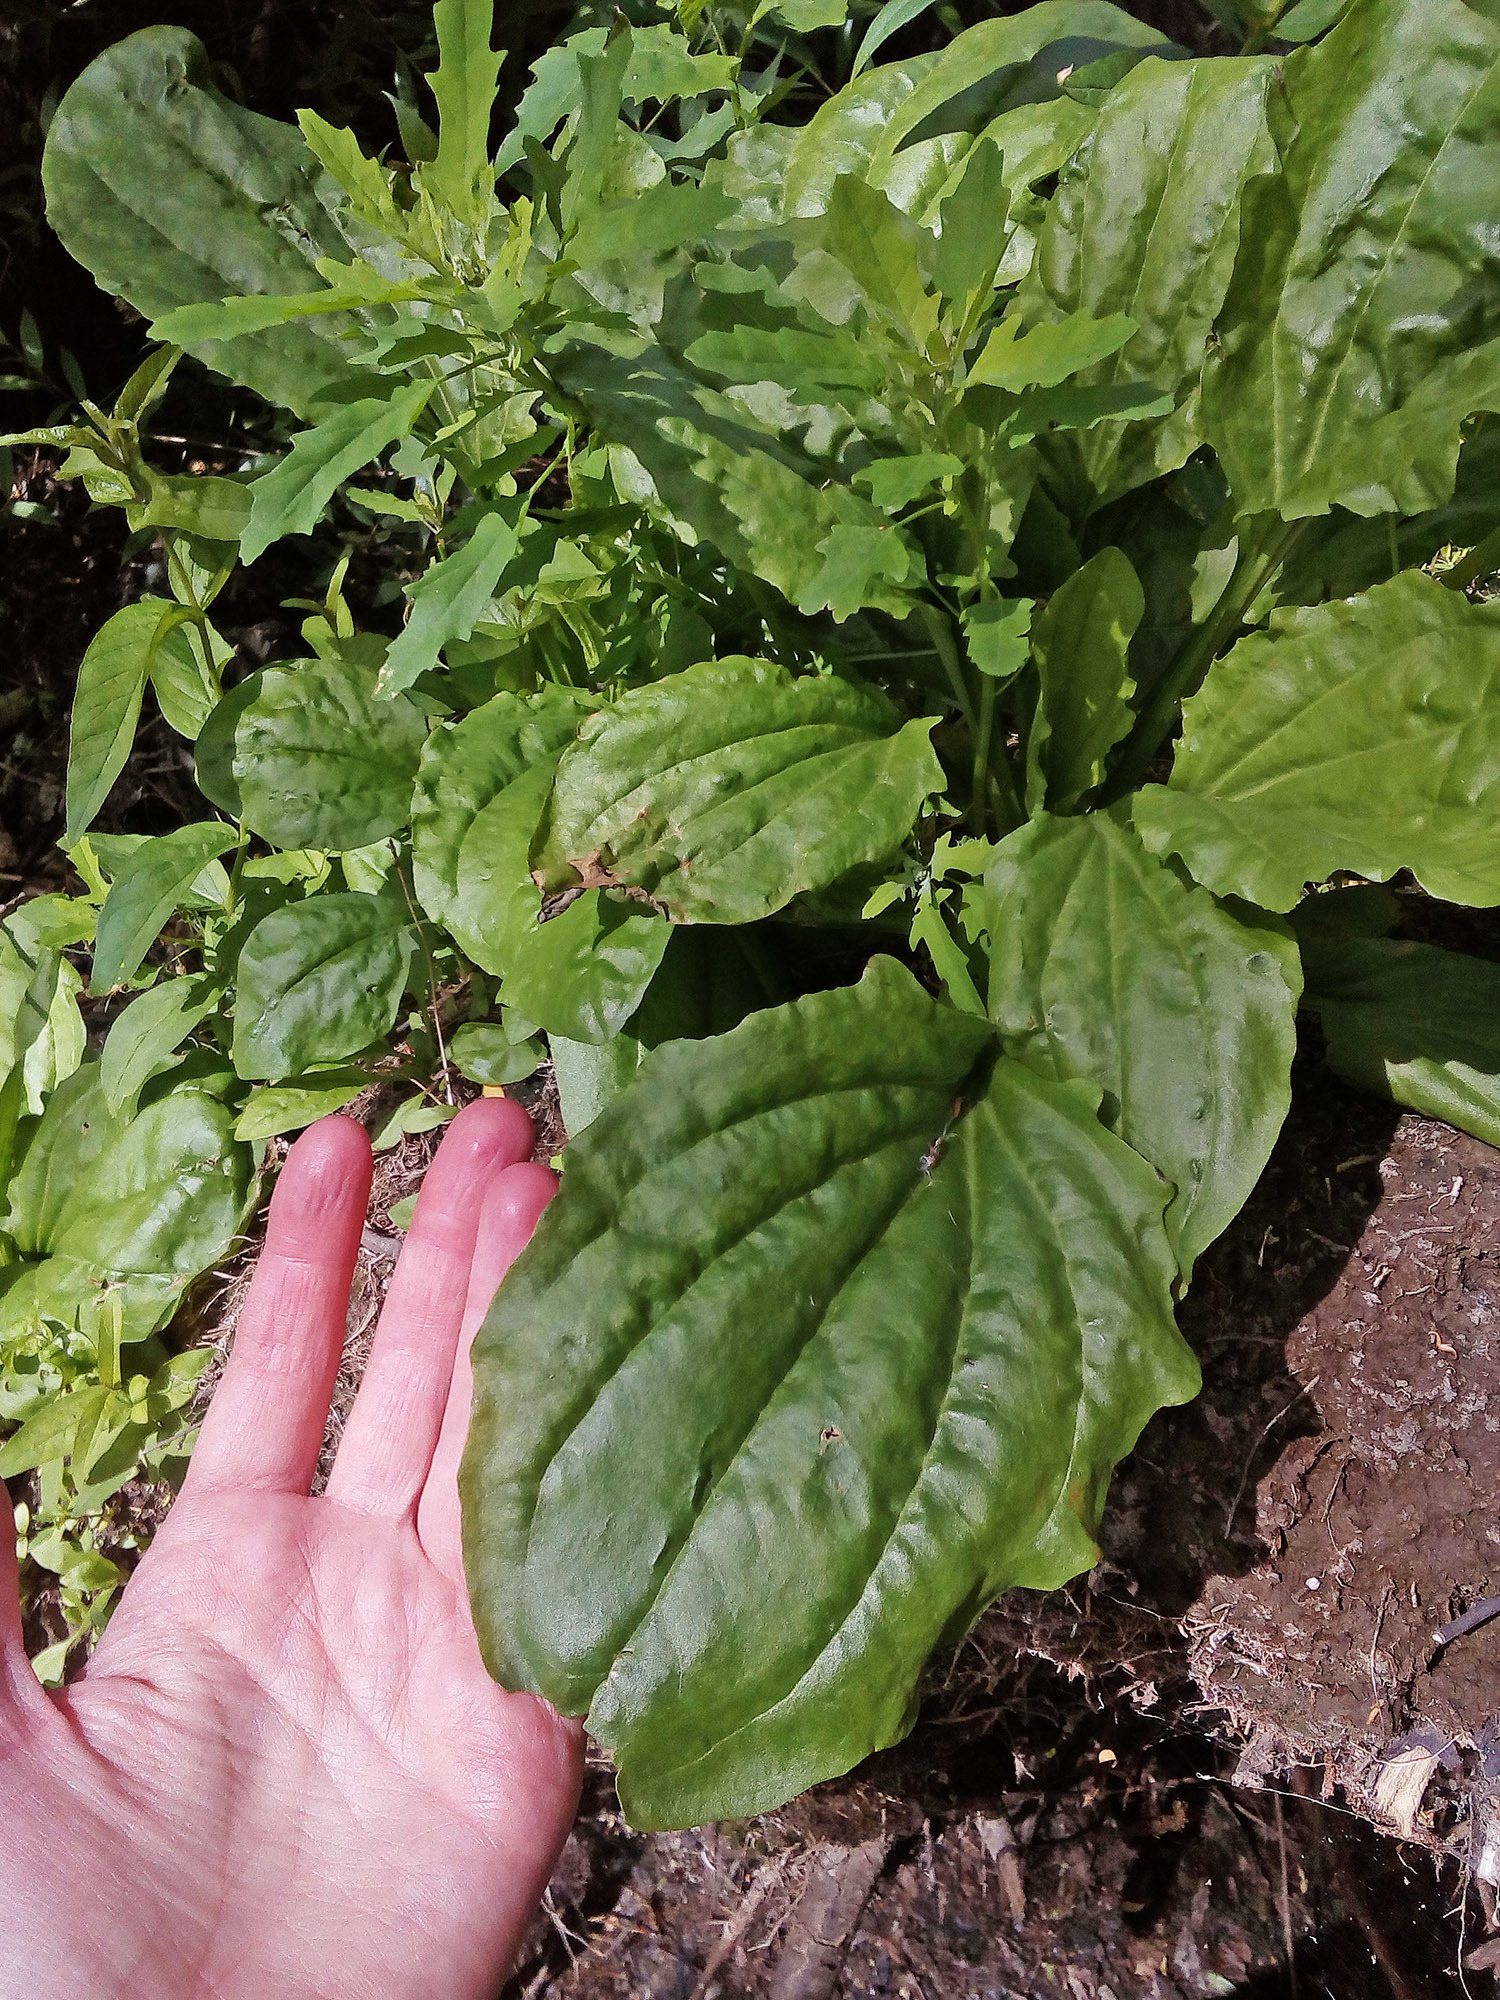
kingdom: Plantae
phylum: Tracheophyta
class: Magnoliopsida
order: Lamiales
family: Plantaginaceae
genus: Plantago
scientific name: Plantago major
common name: Common plantain
